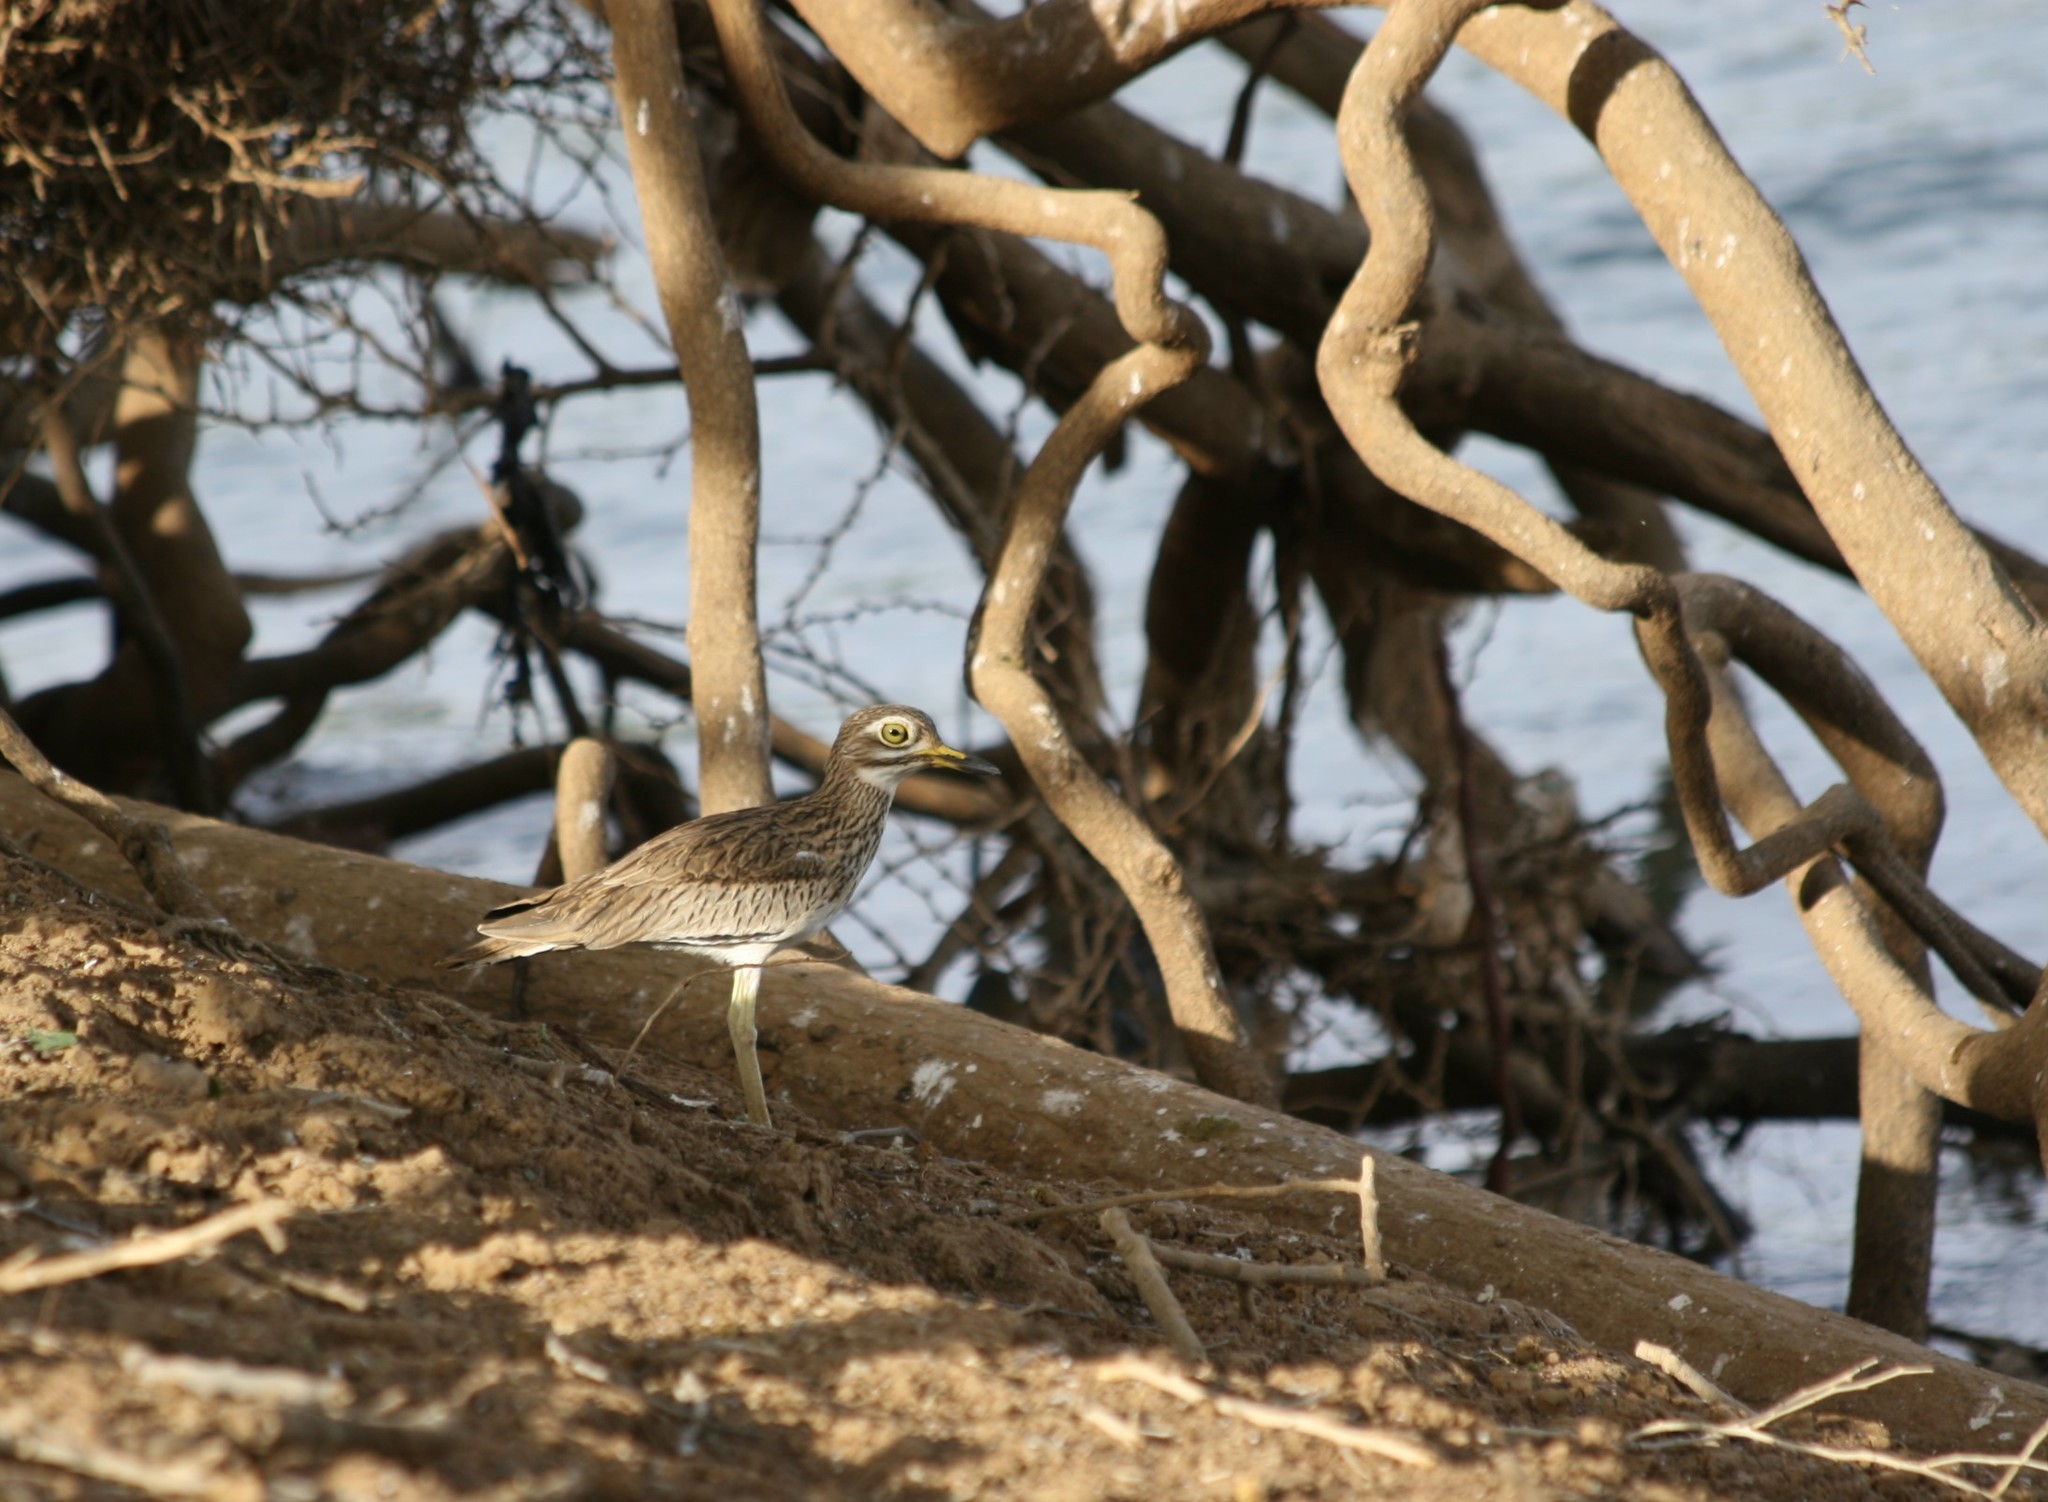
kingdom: Animalia
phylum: Chordata
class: Aves
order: Charadriiformes
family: Burhinidae
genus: Burhinus
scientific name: Burhinus senegalensis
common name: Senegal thick-knee
